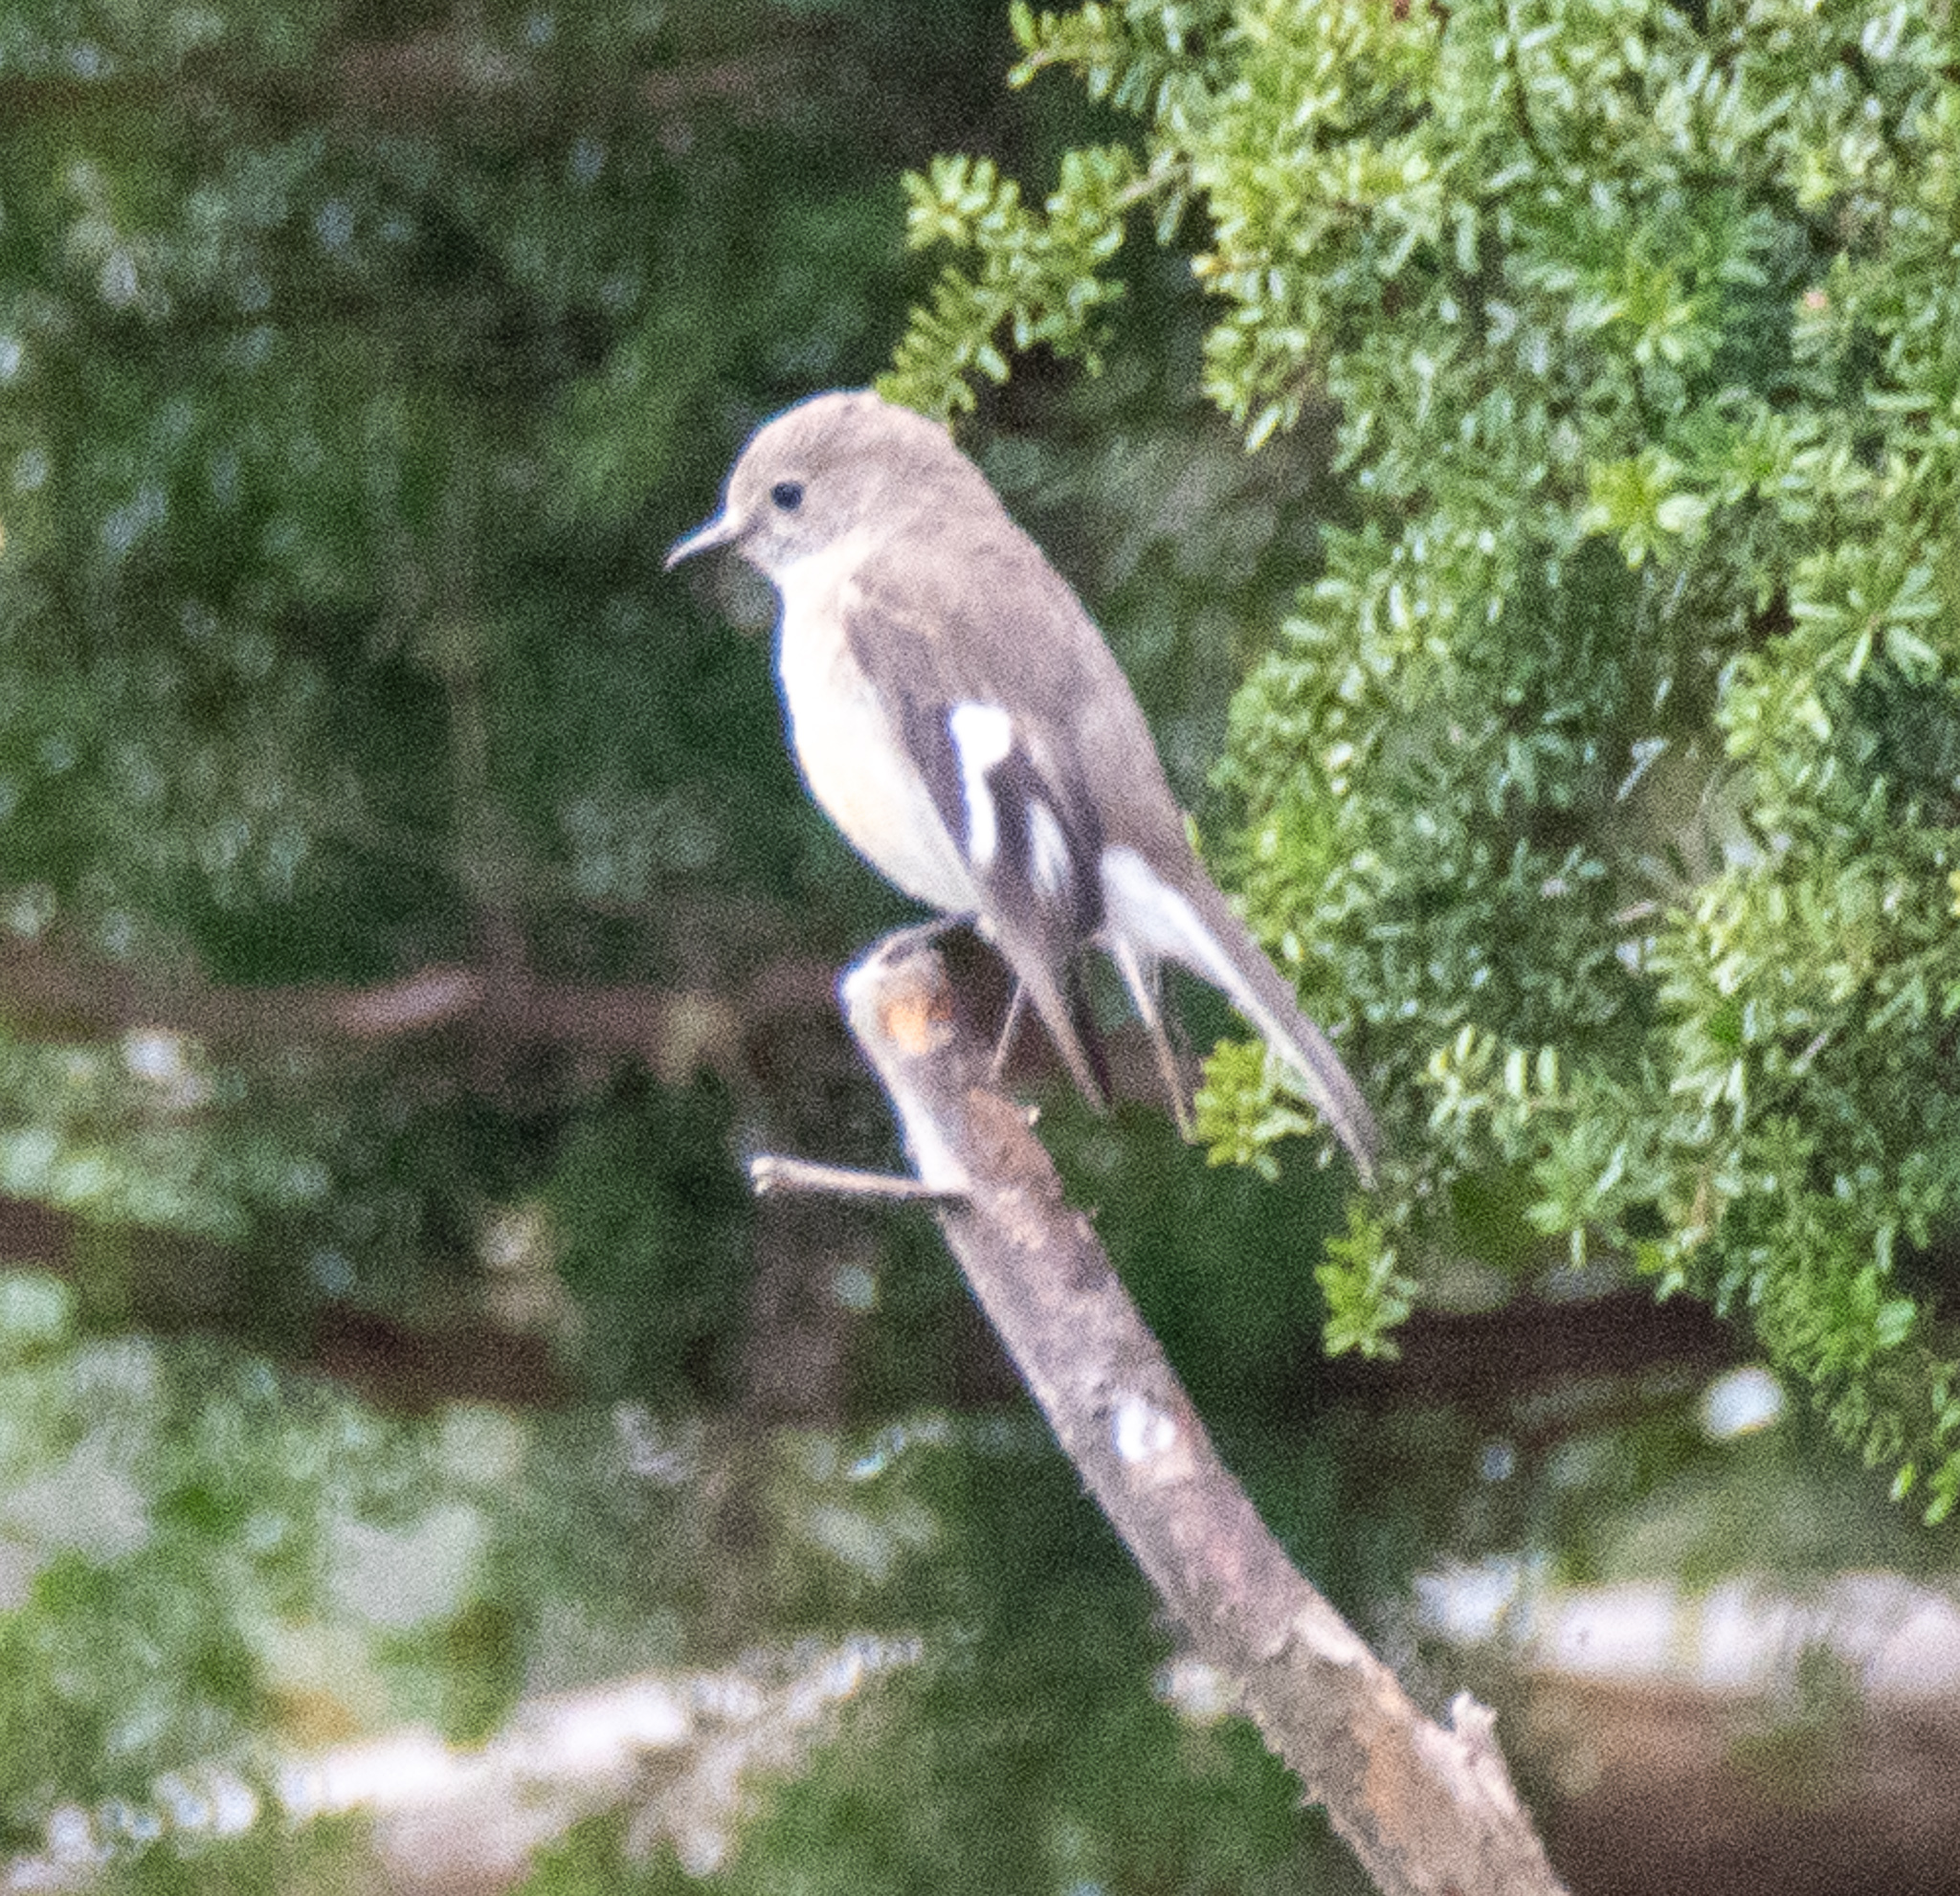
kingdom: Animalia
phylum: Chordata
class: Aves
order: Passeriformes
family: Petroicidae
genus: Petroica
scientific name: Petroica phoenicea
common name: Flame robin
